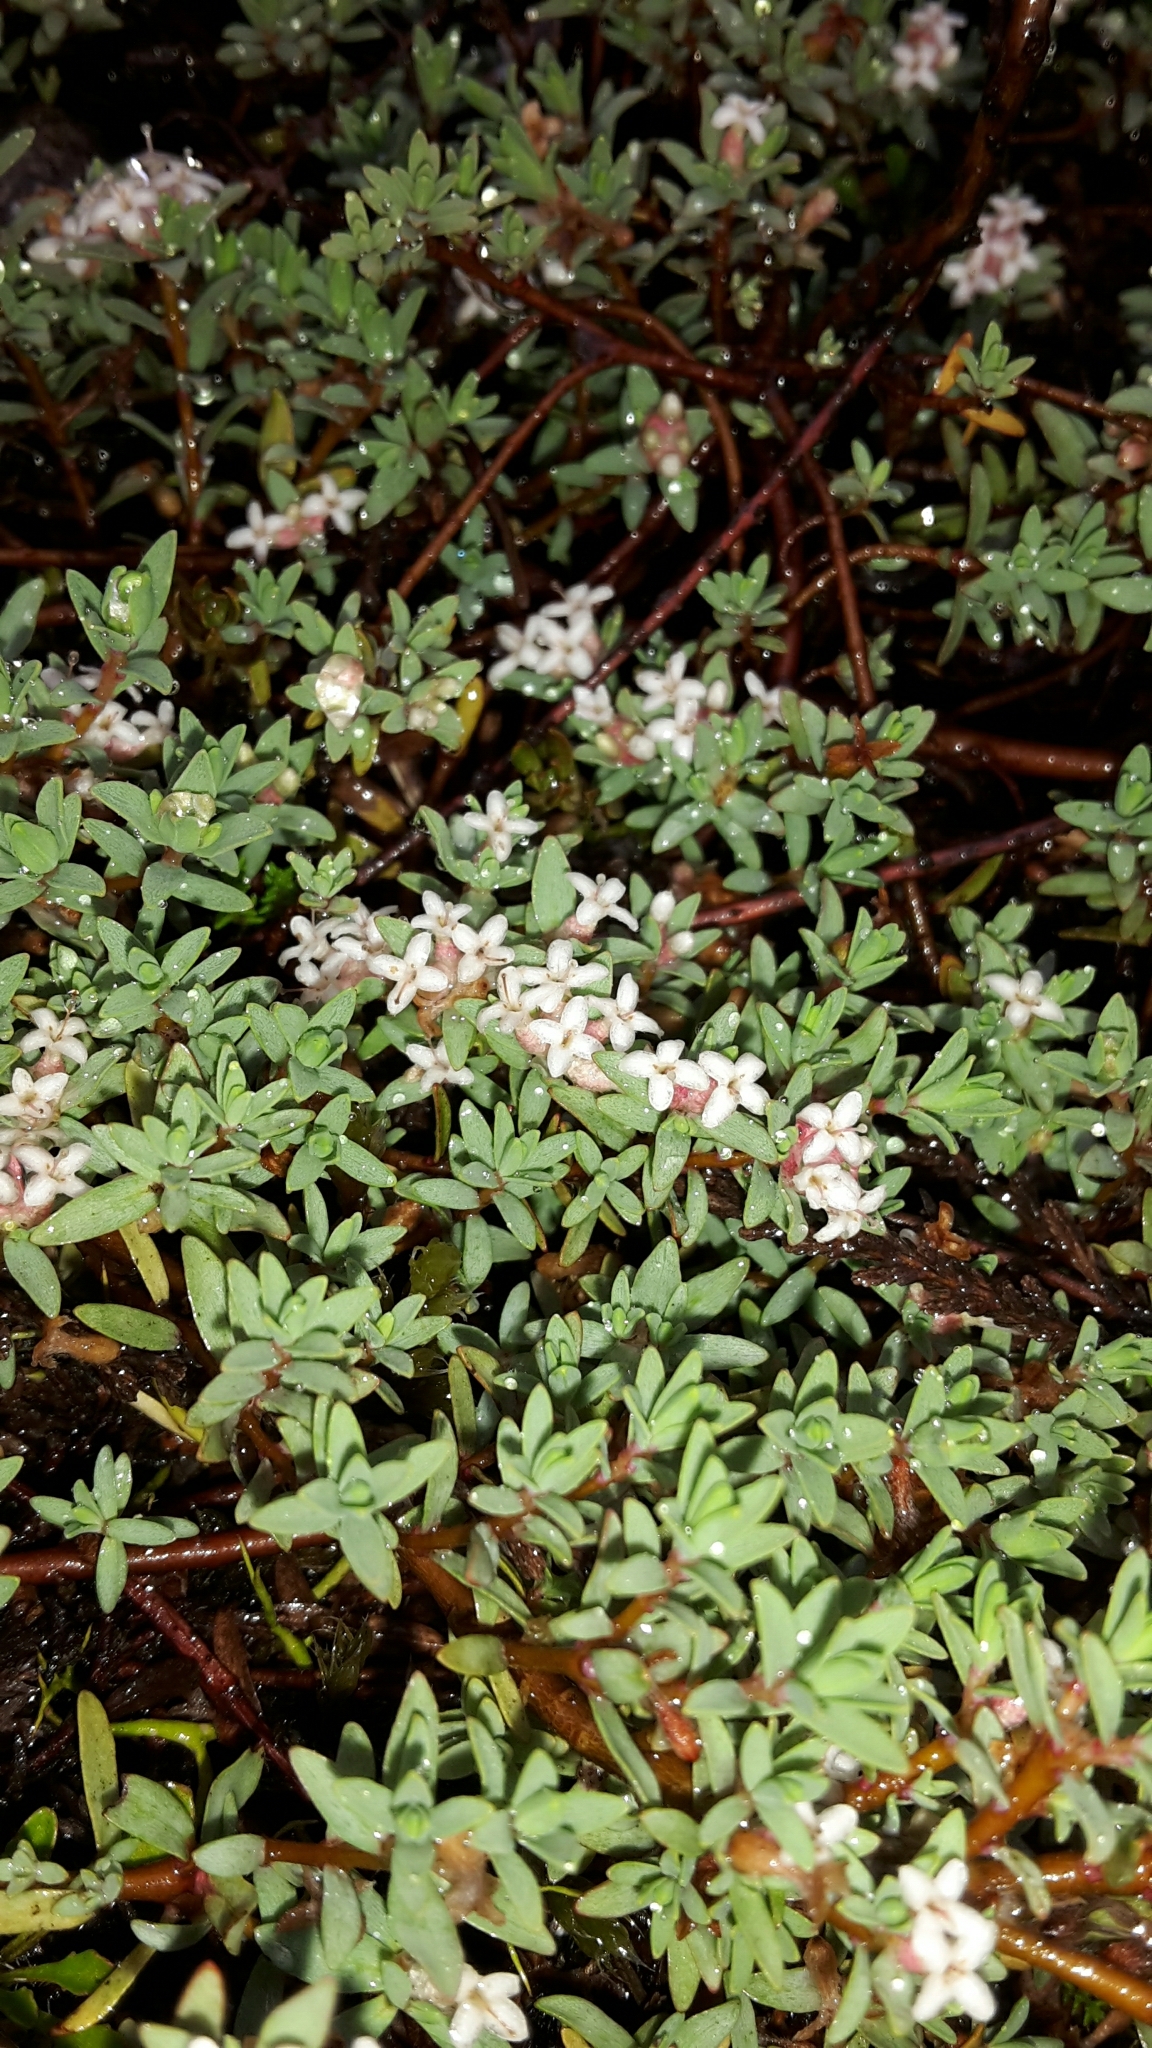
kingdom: Plantae
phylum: Tracheophyta
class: Magnoliopsida
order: Malvales
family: Thymelaeaceae
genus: Pimelea
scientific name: Pimelea prostrata
